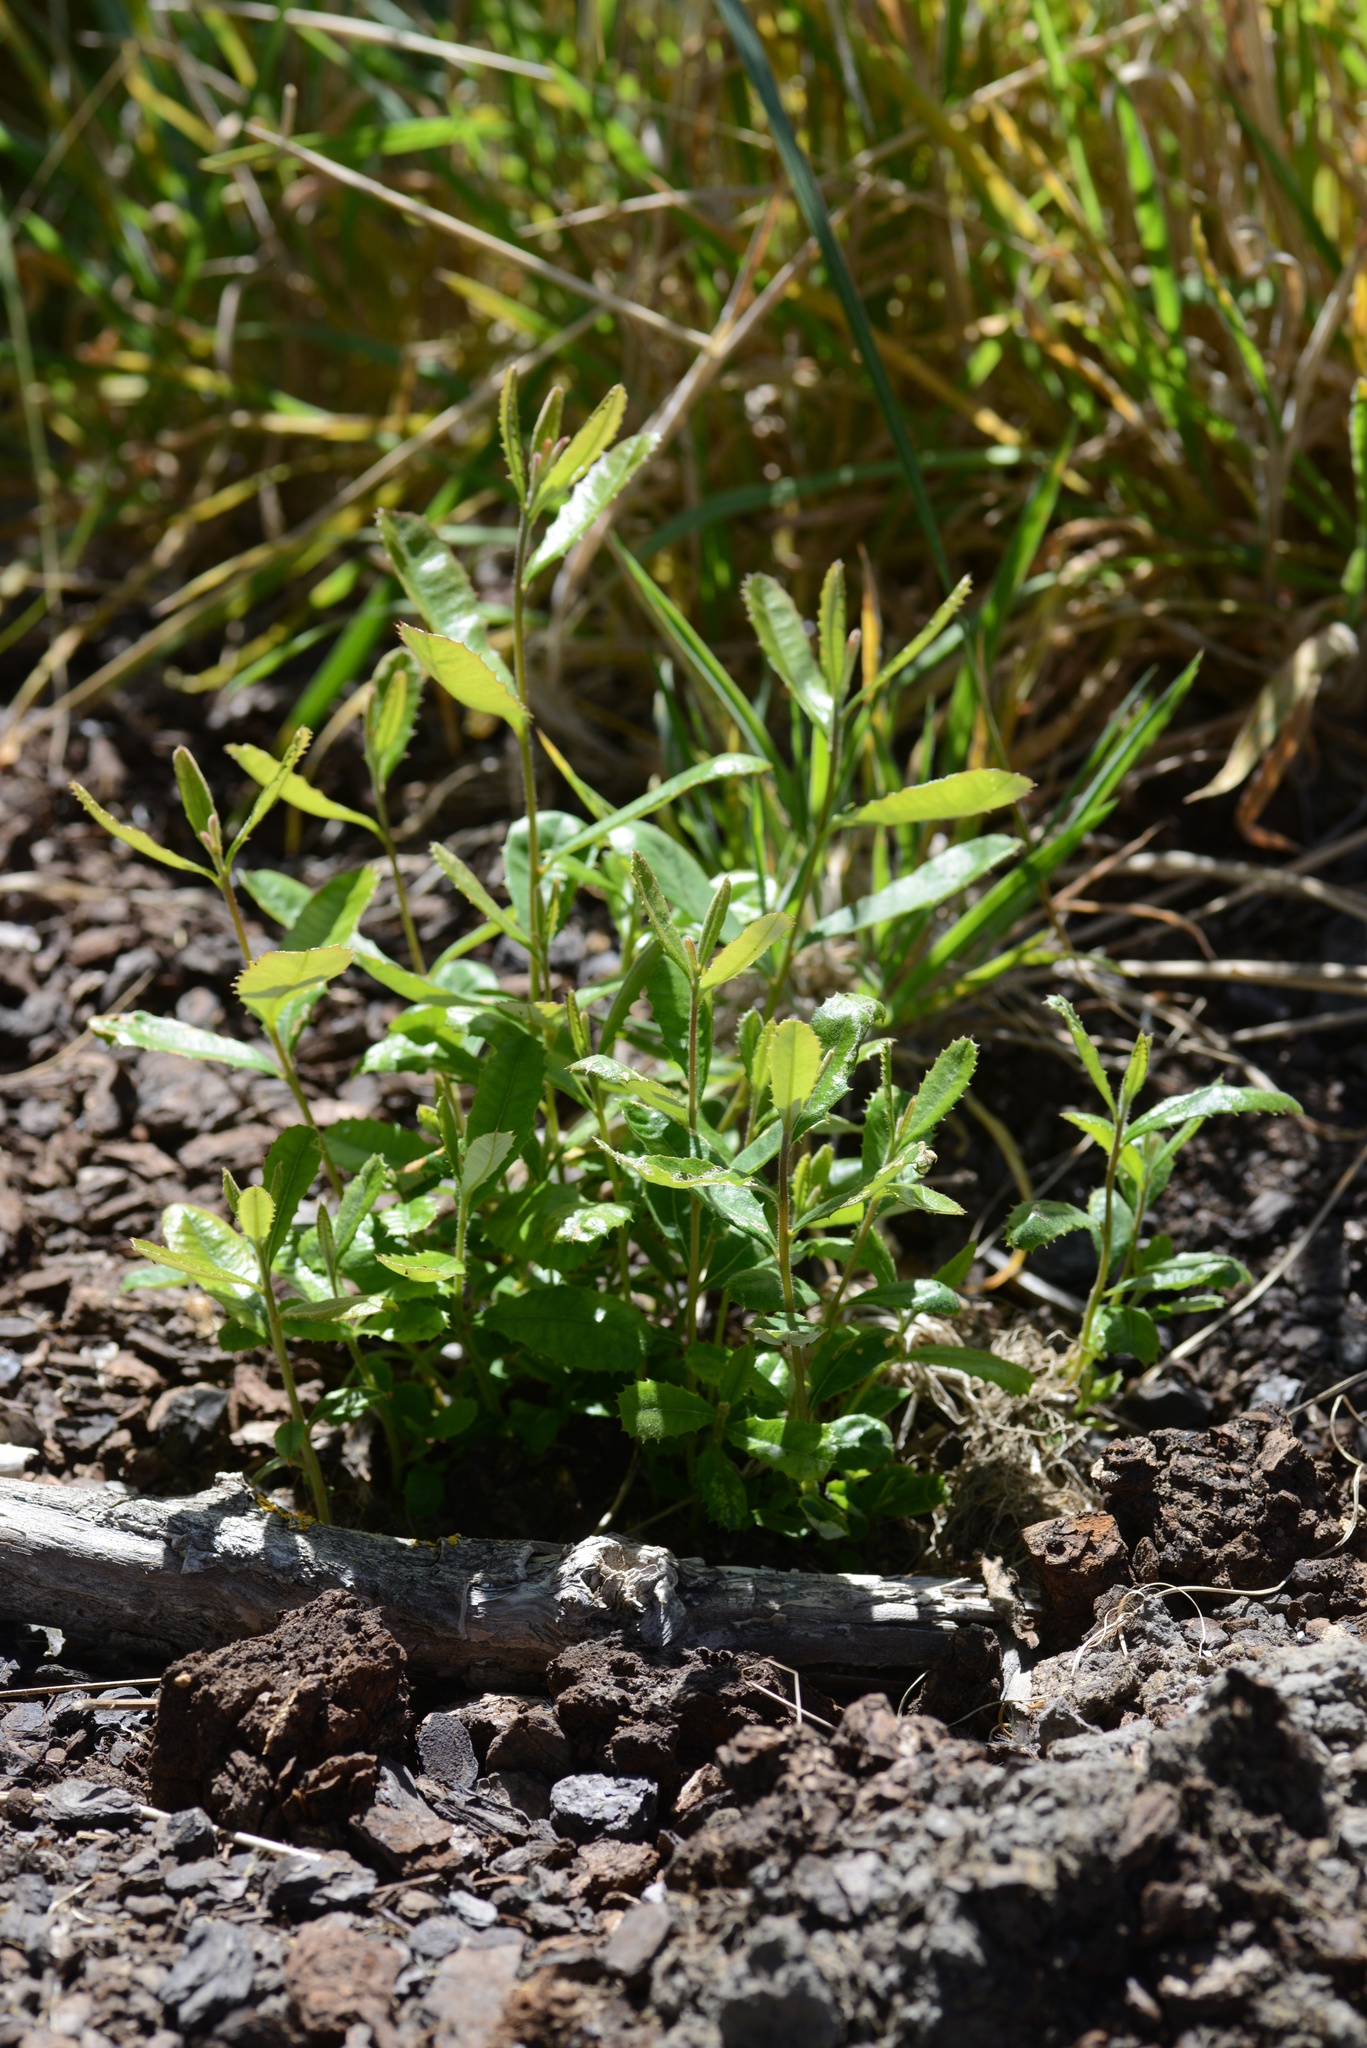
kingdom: Plantae
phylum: Tracheophyta
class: Magnoliopsida
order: Proteales
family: Proteaceae
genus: Banksia
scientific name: Banksia integrifolia
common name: White-honeysuckle
